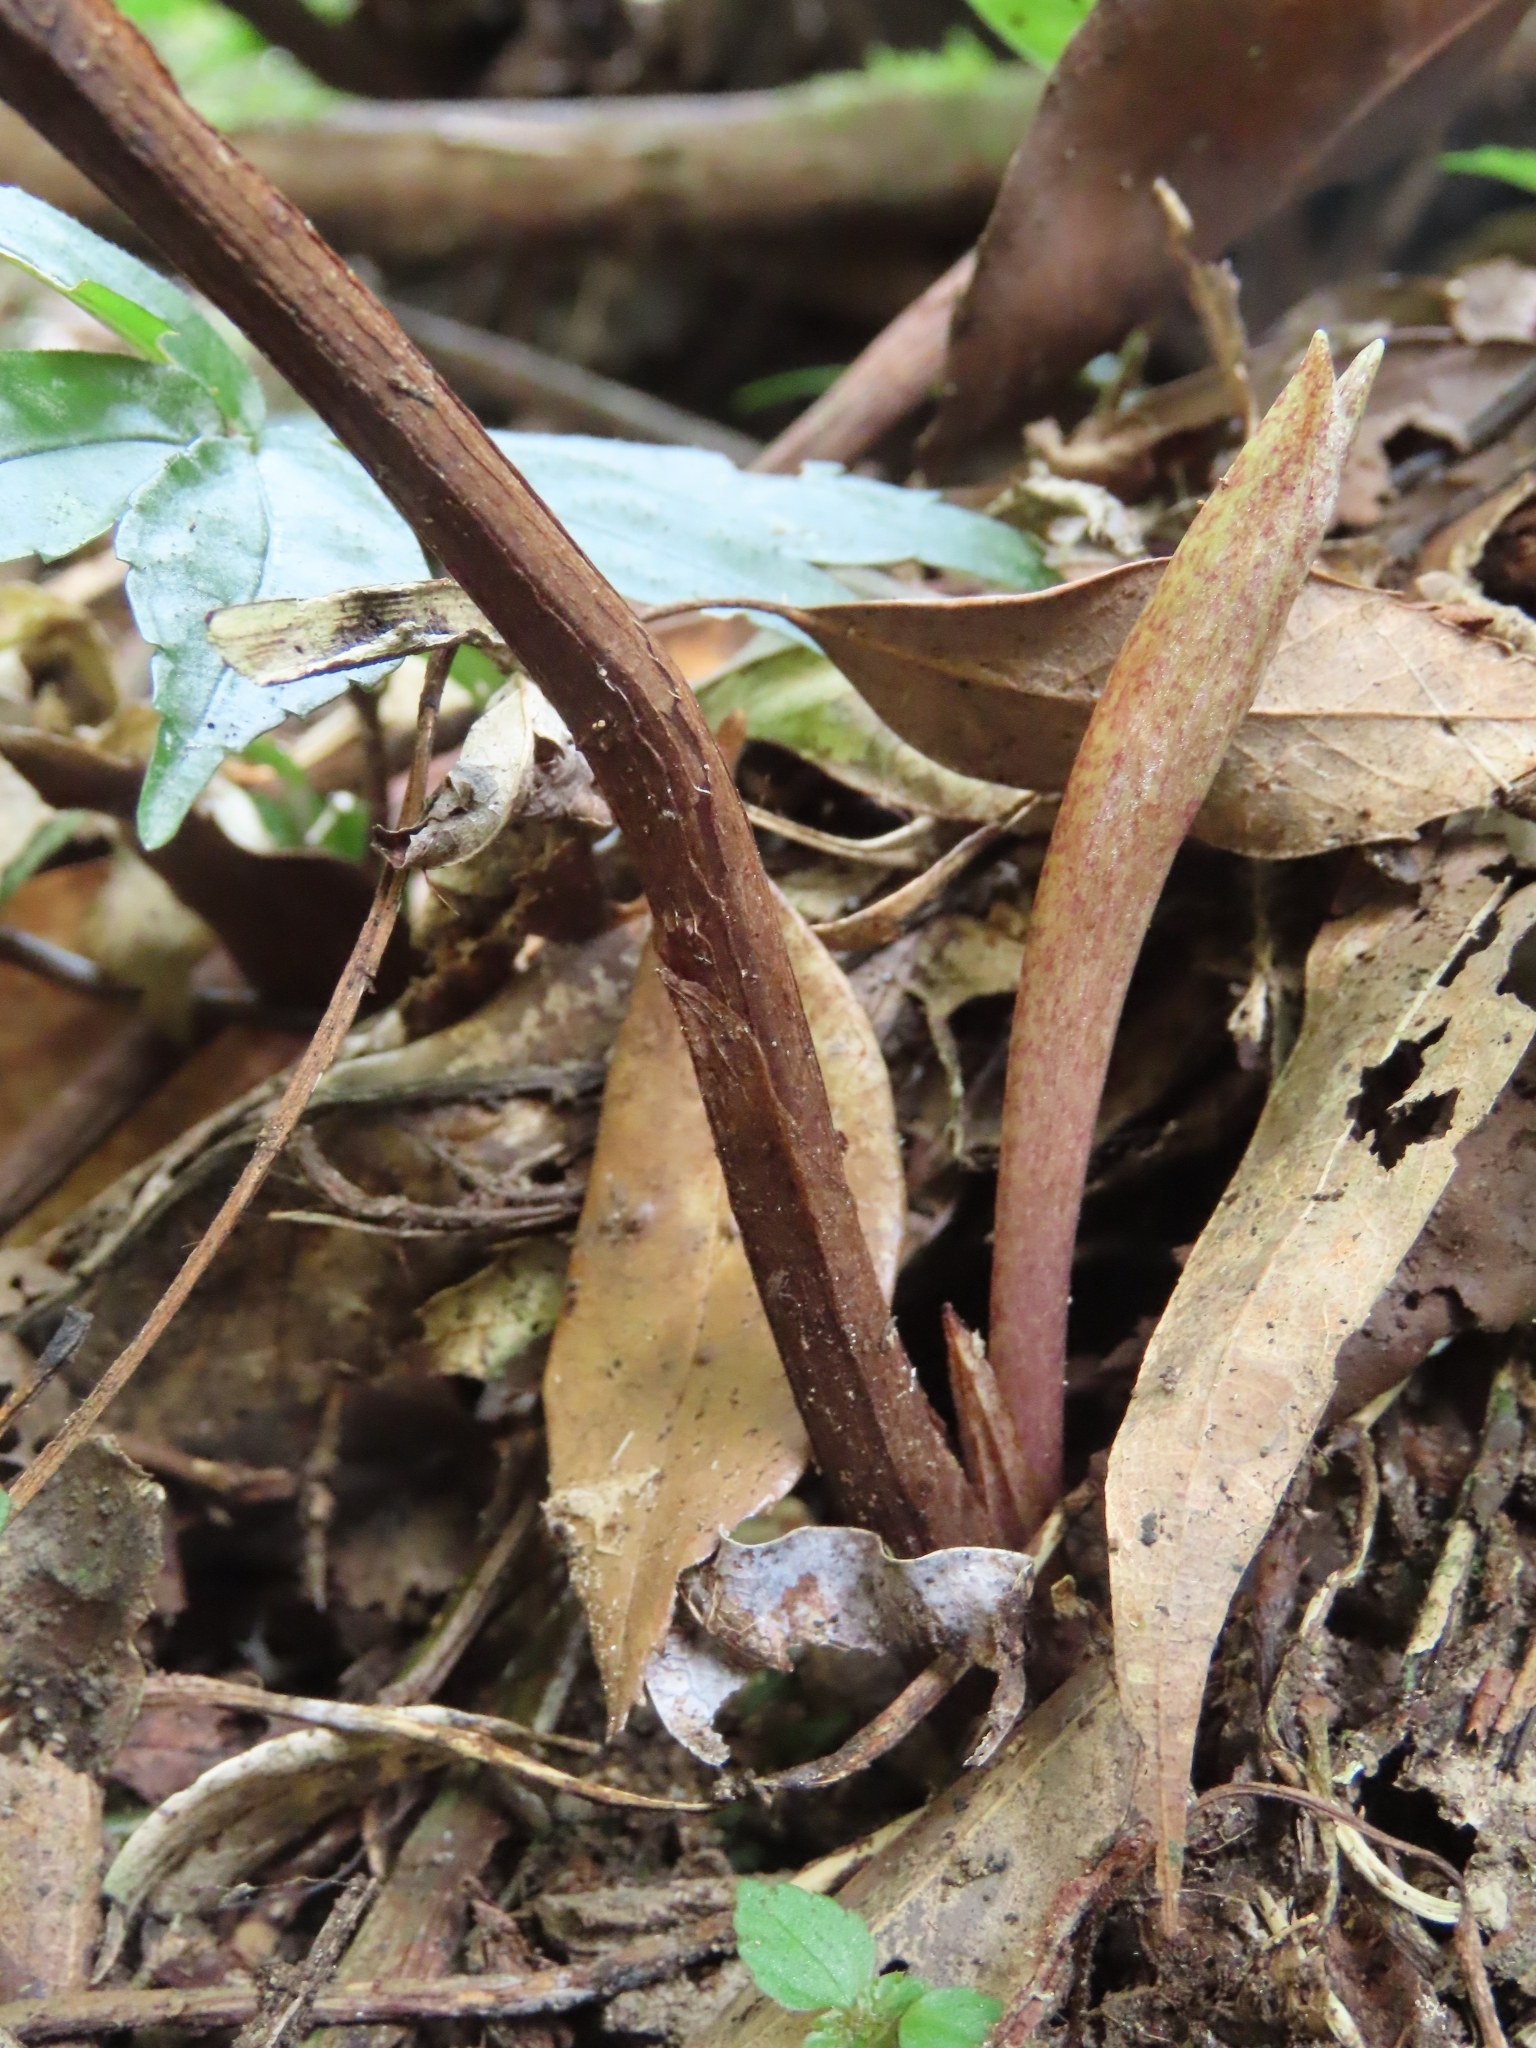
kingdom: Plantae
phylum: Tracheophyta
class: Liliopsida
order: Asparagales
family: Orchidaceae
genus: Cremastra
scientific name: Cremastra appendiculata
